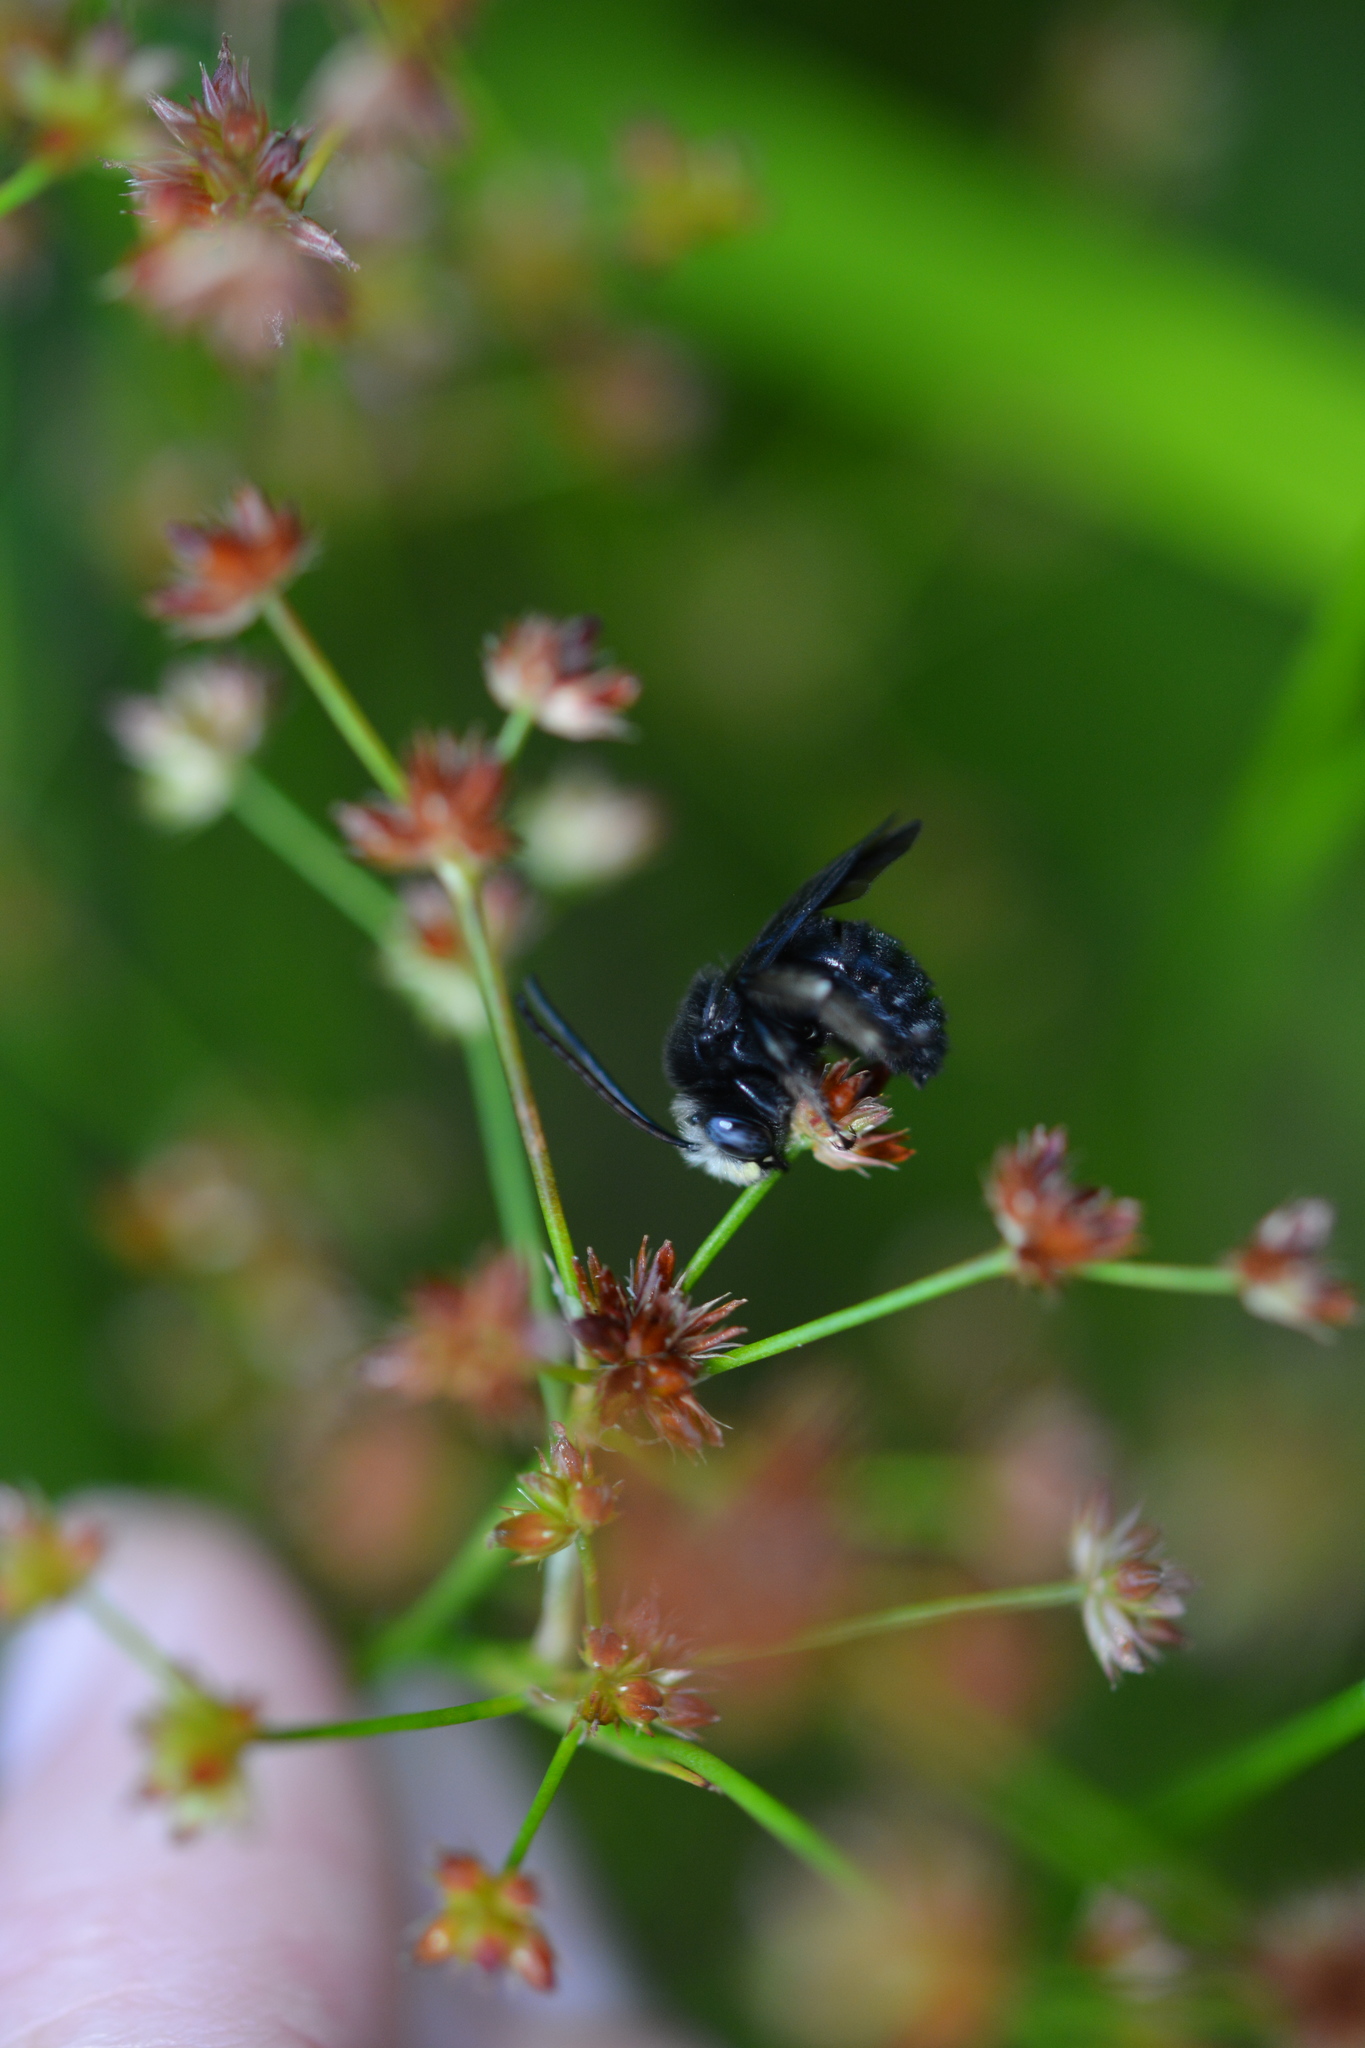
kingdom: Animalia
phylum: Arthropoda
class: Insecta
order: Hymenoptera
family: Apidae
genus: Melissodes
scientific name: Melissodes bimaculatus
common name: Two-spotted long-horned bee
